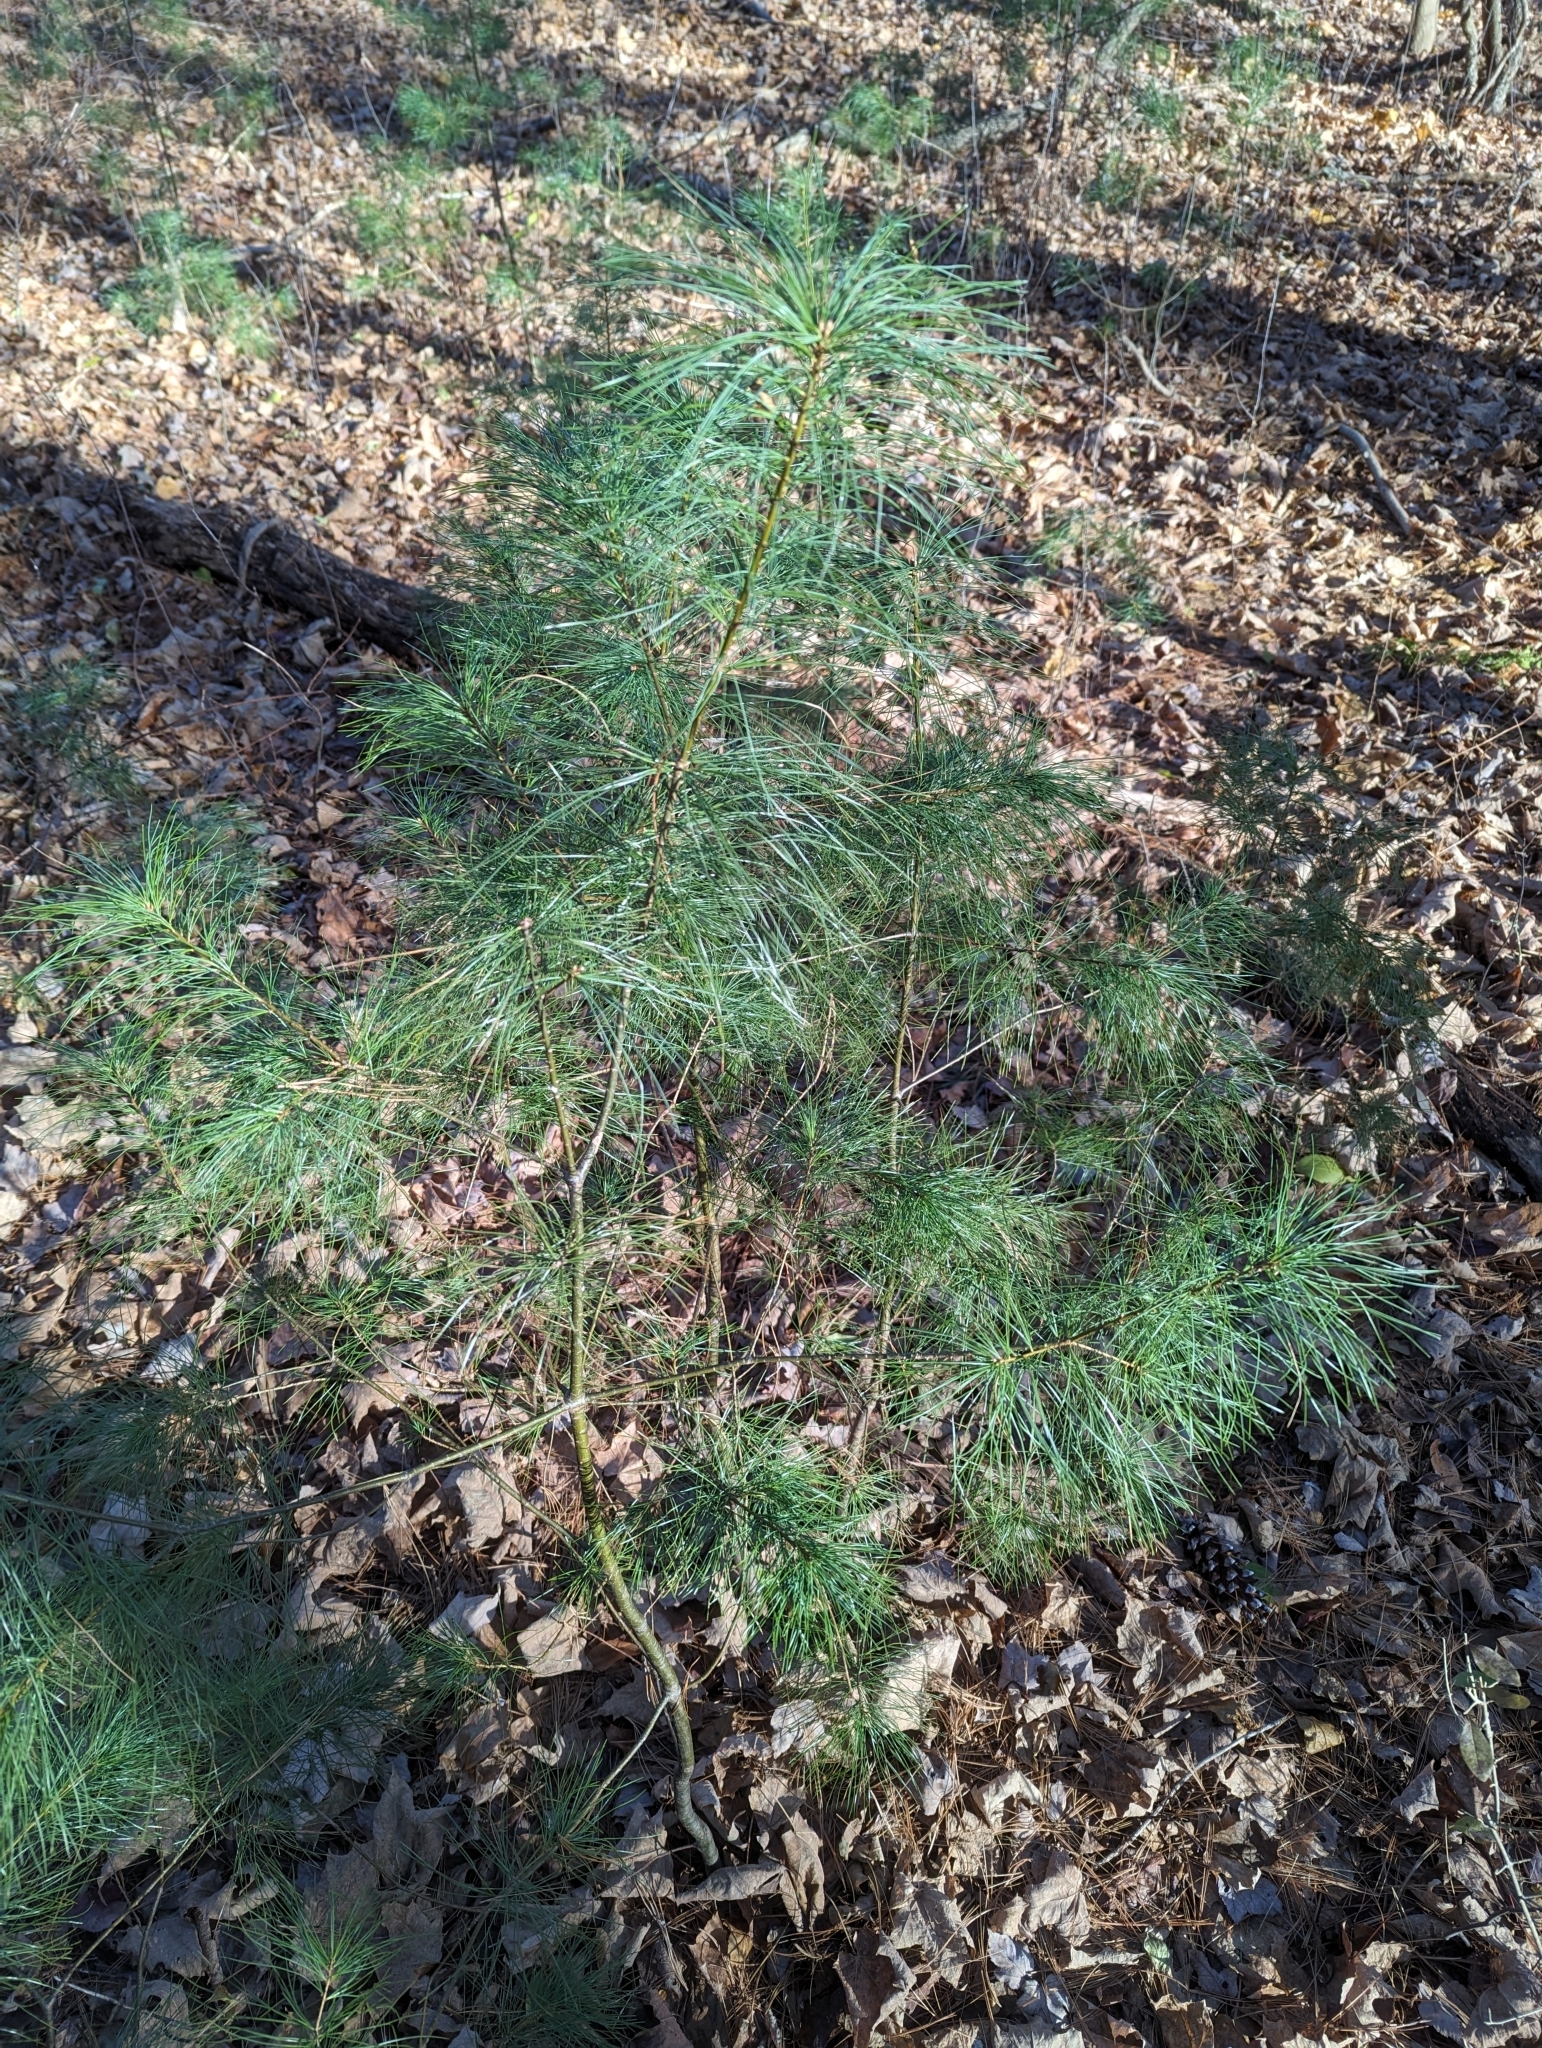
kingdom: Plantae
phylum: Tracheophyta
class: Pinopsida
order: Pinales
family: Pinaceae
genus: Pinus
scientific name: Pinus strobus
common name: Weymouth pine
